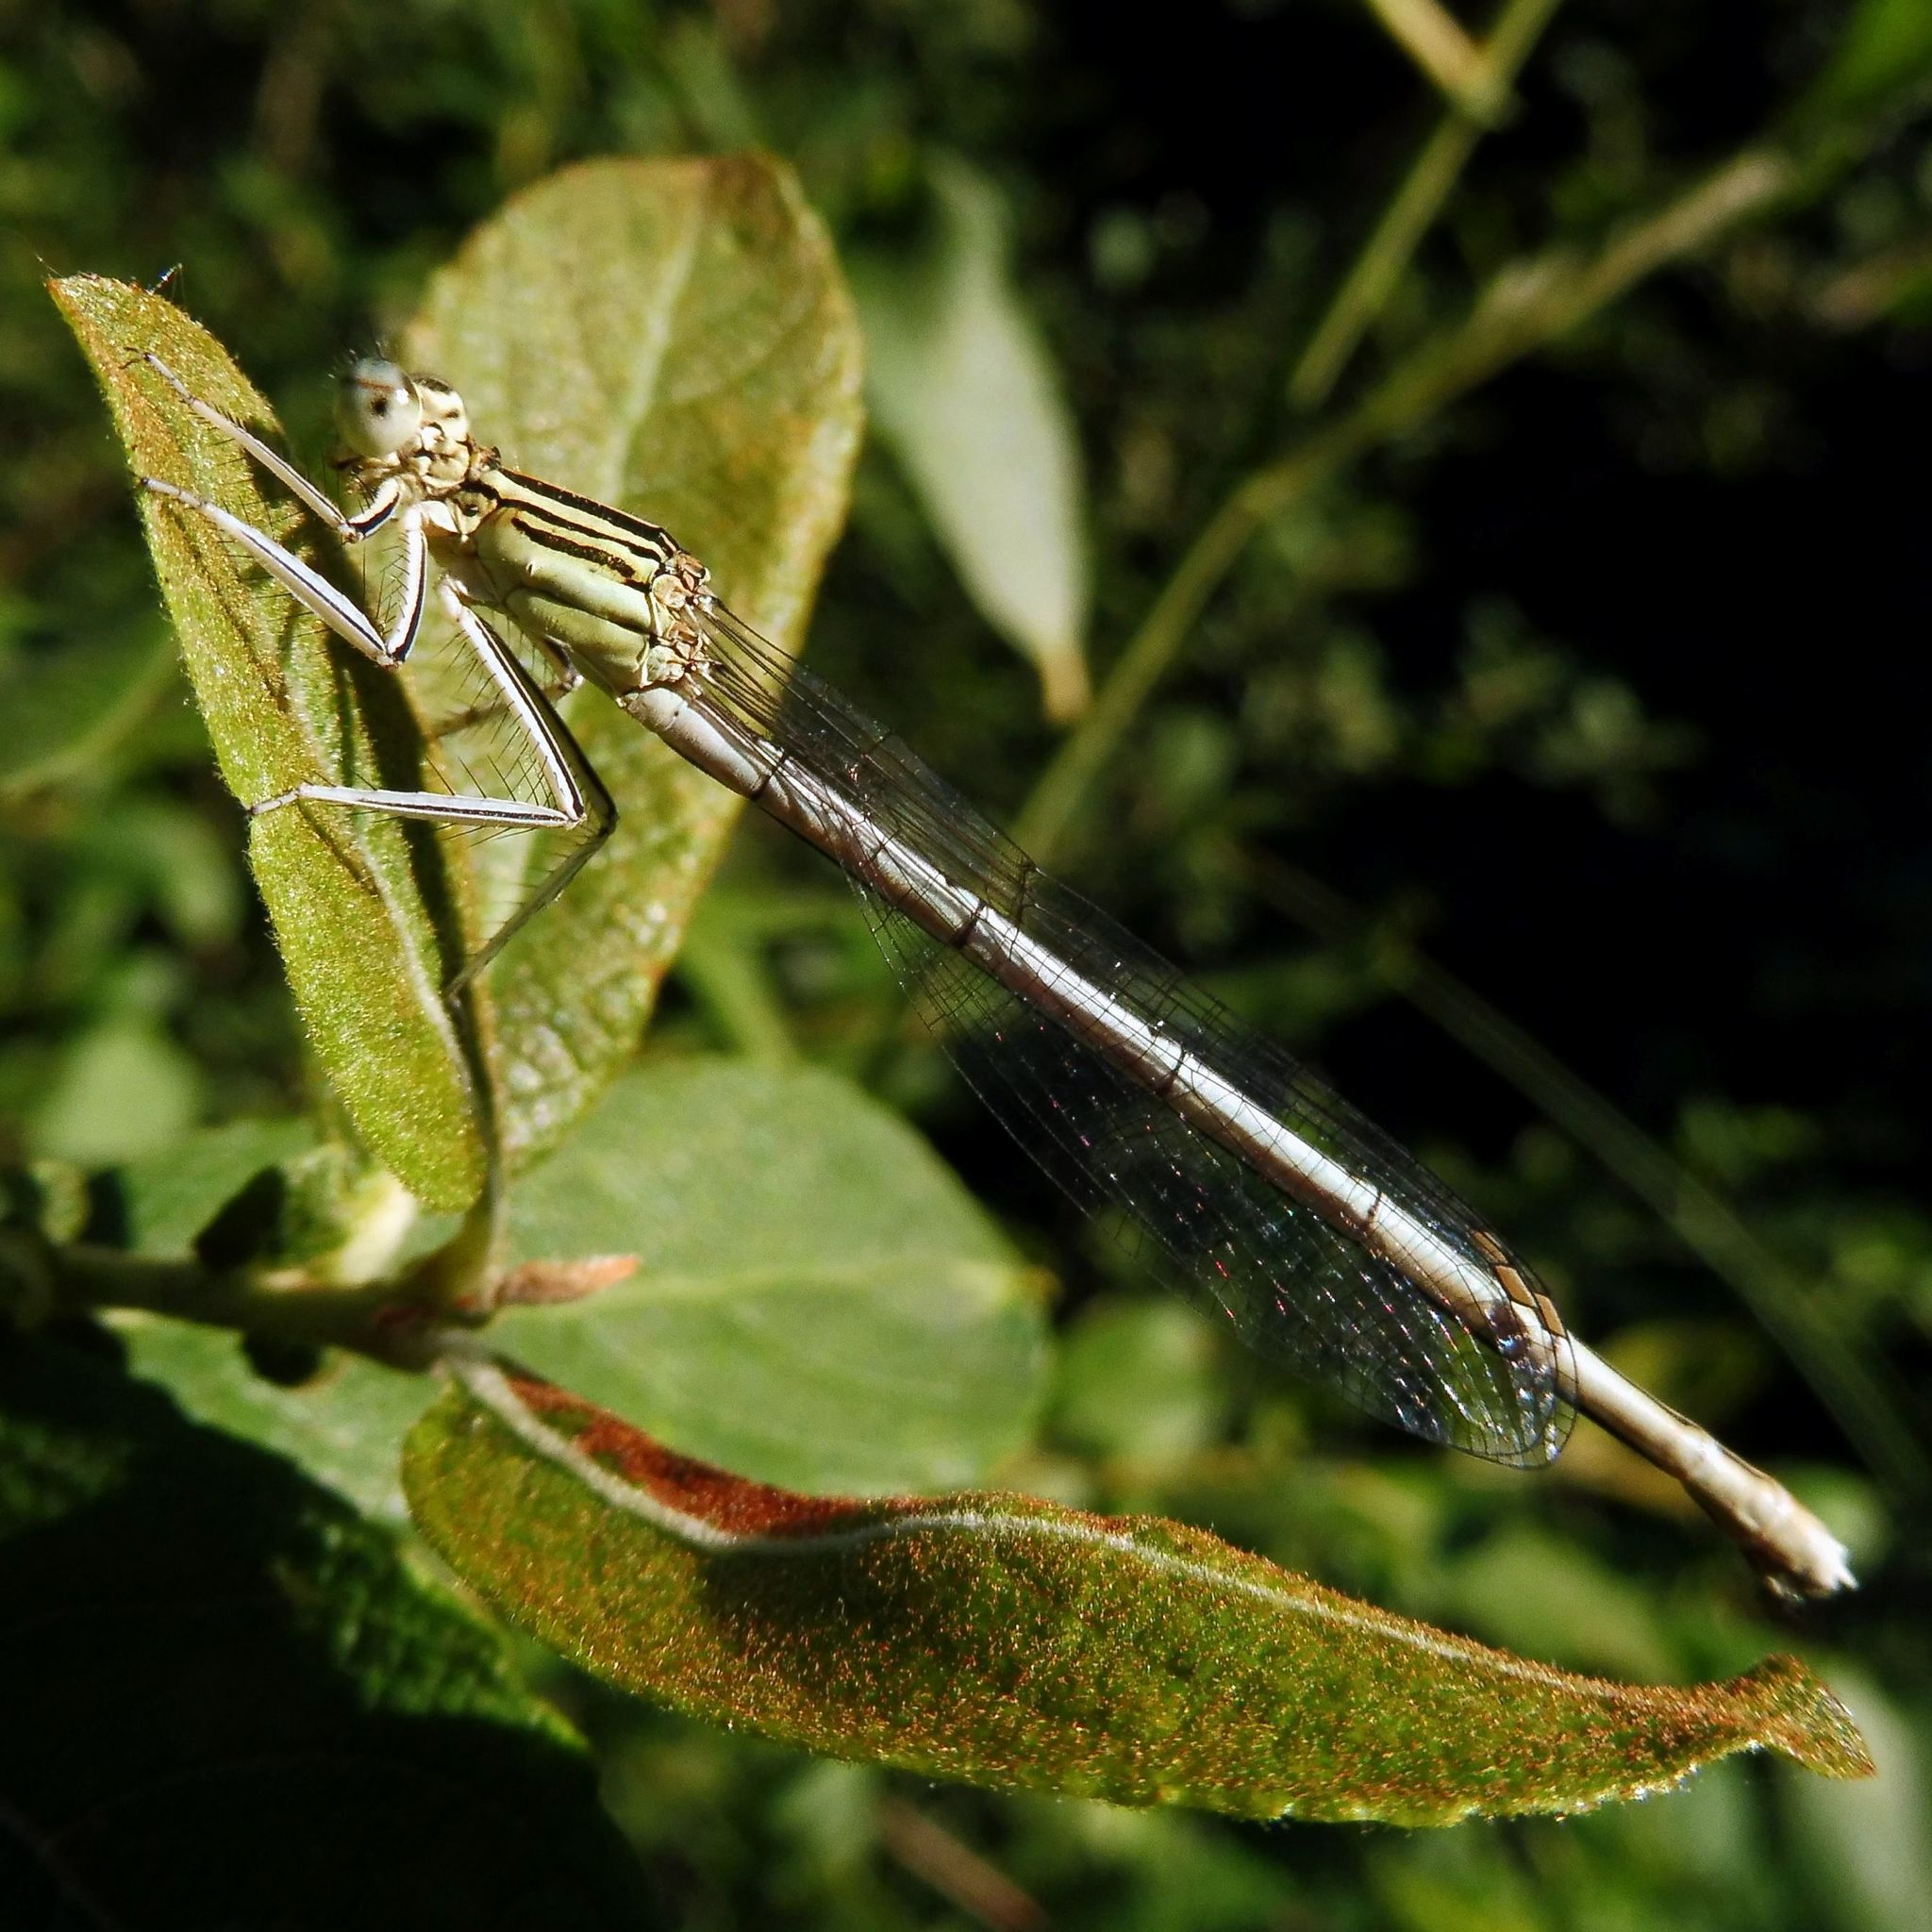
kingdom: Animalia
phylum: Arthropoda
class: Insecta
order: Odonata
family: Platycnemididae
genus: Platycnemis
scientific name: Platycnemis pennipes
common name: White-legged damselfly
